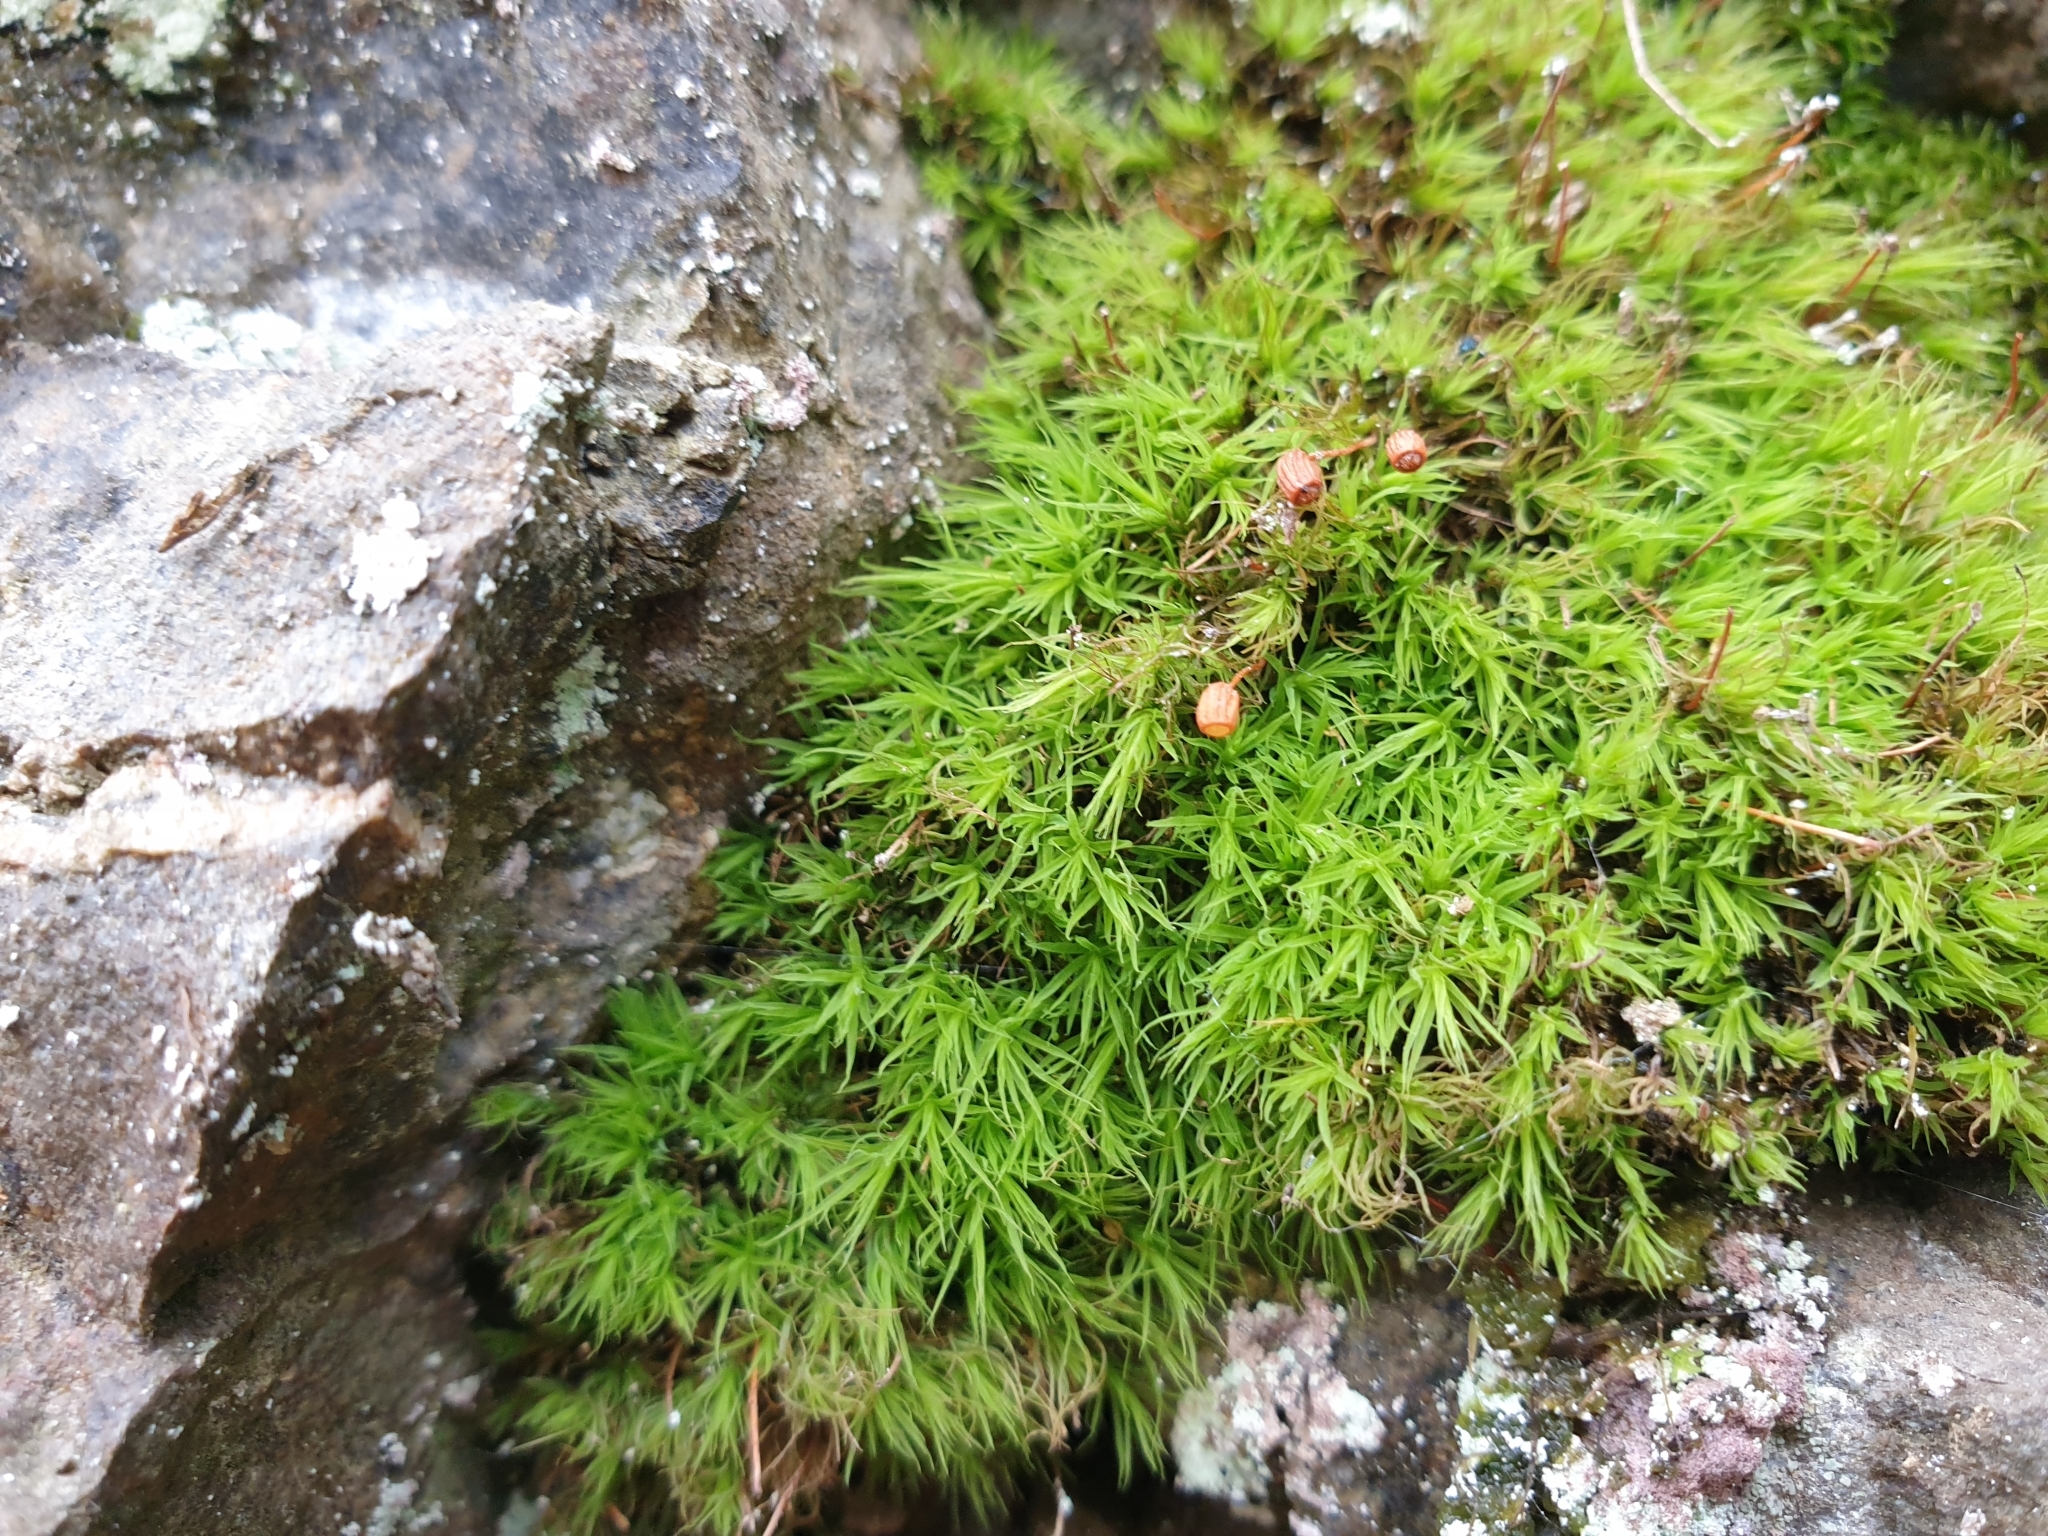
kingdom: Plantae
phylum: Bryophyta
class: Bryopsida
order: Bartramiales
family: Bartramiaceae
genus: Bartramia
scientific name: Bartramia ithyphylla
